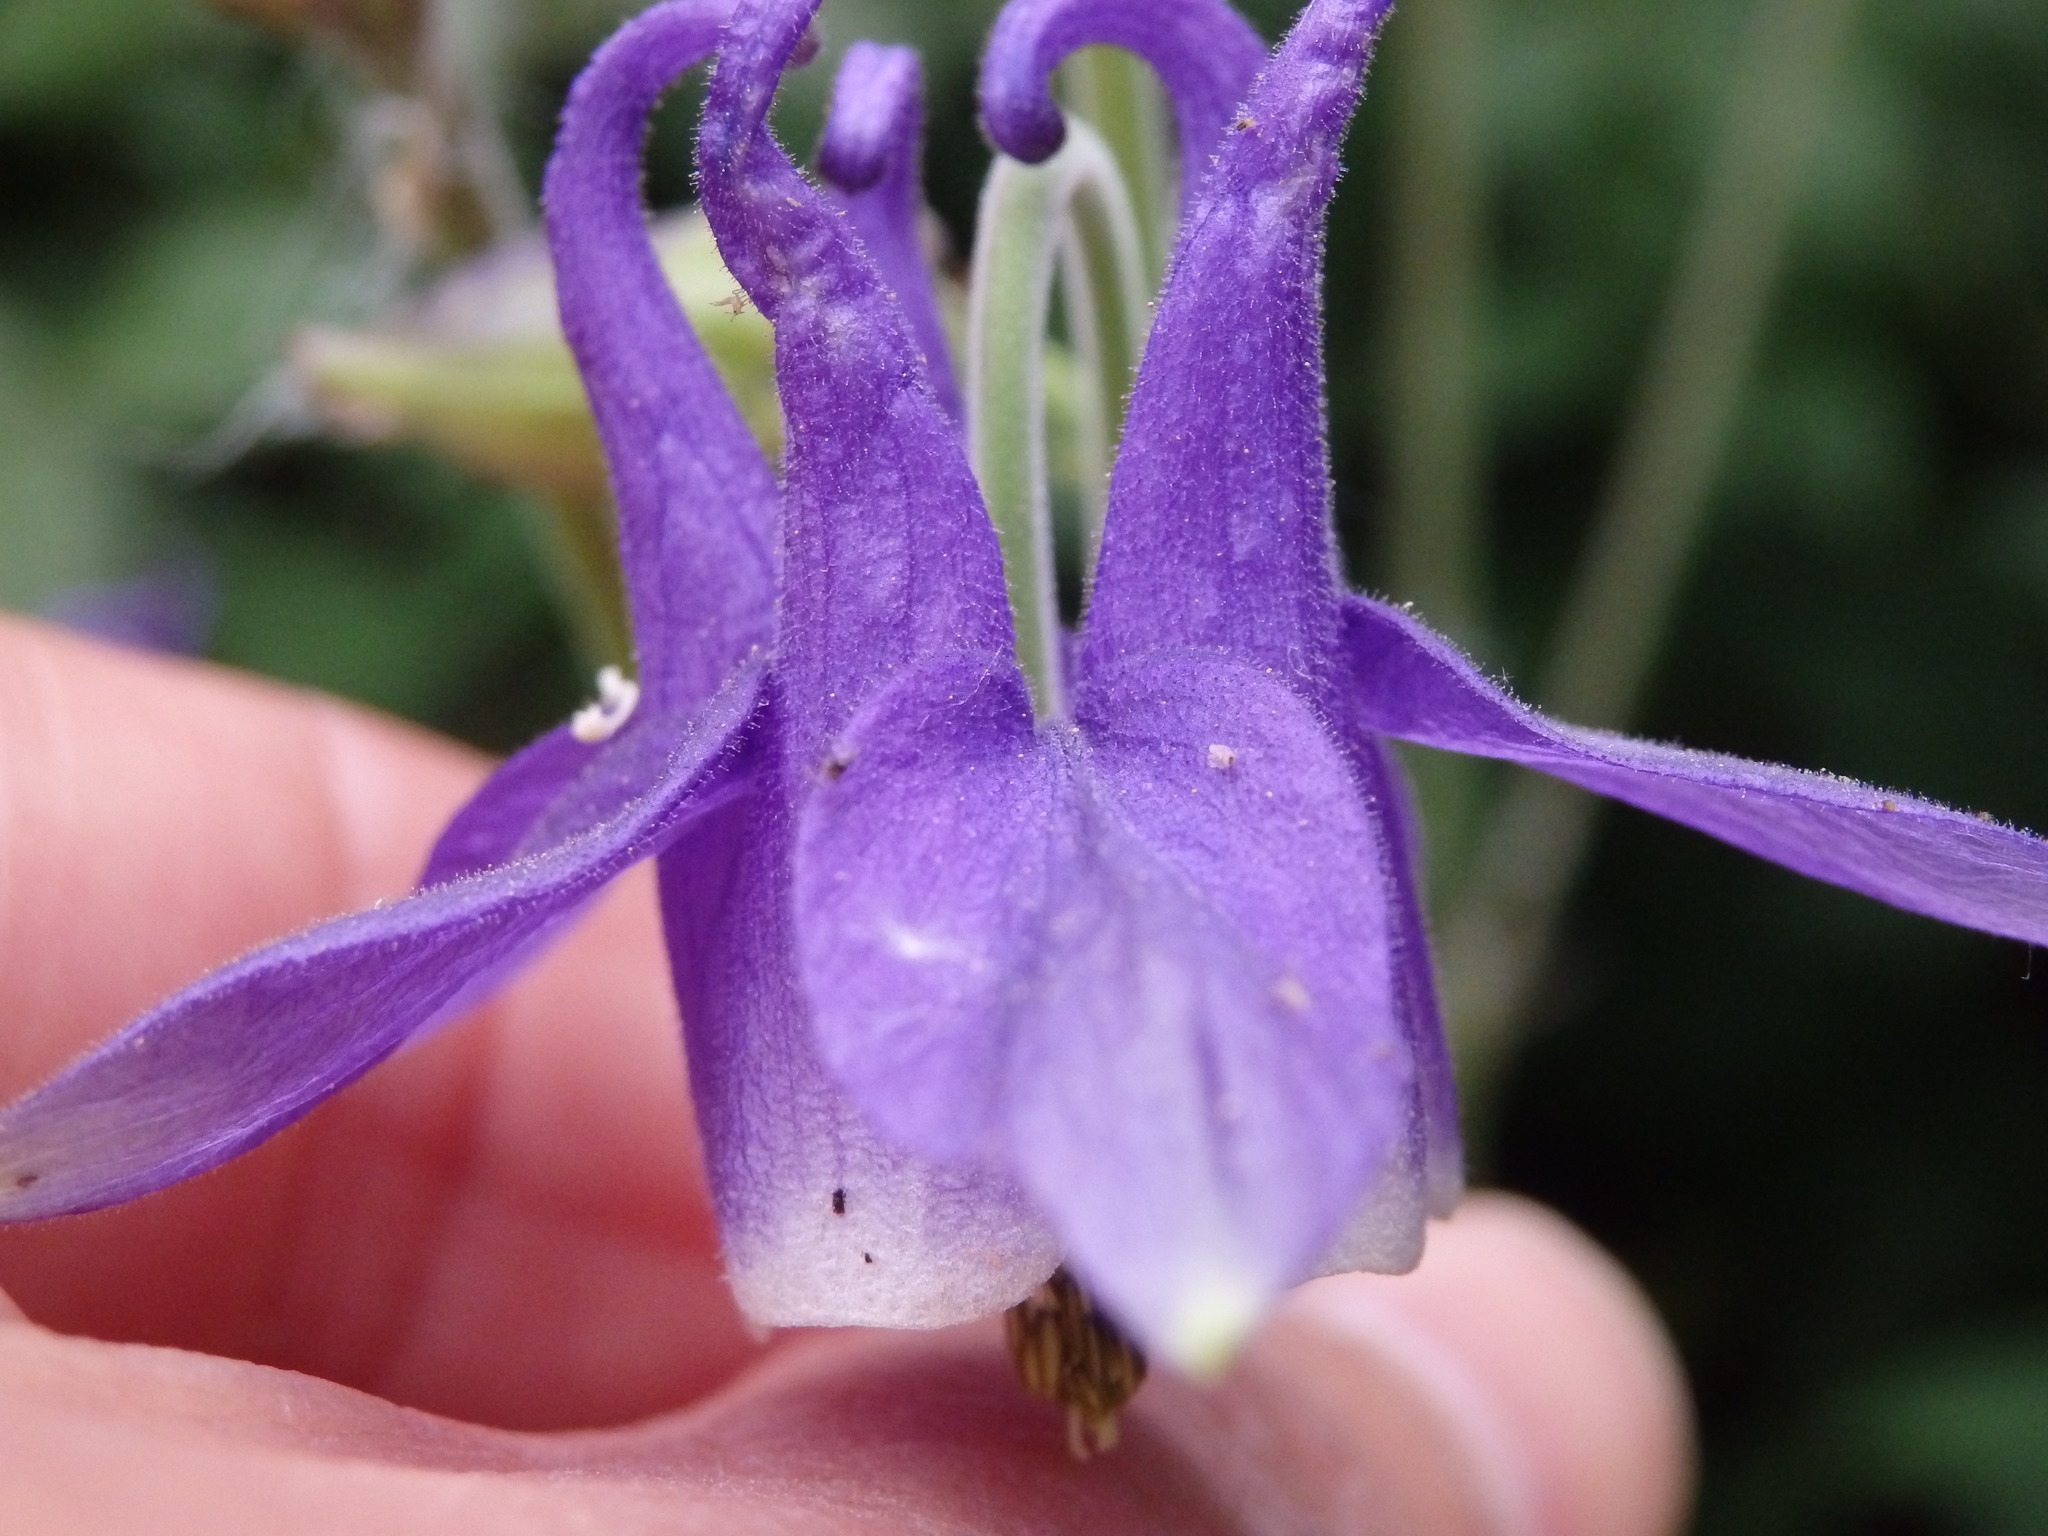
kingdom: Plantae
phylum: Tracheophyta
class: Magnoliopsida
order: Ranunculales
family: Ranunculaceae
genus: Aquilegia
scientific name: Aquilegia vulgaris
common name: Columbine
